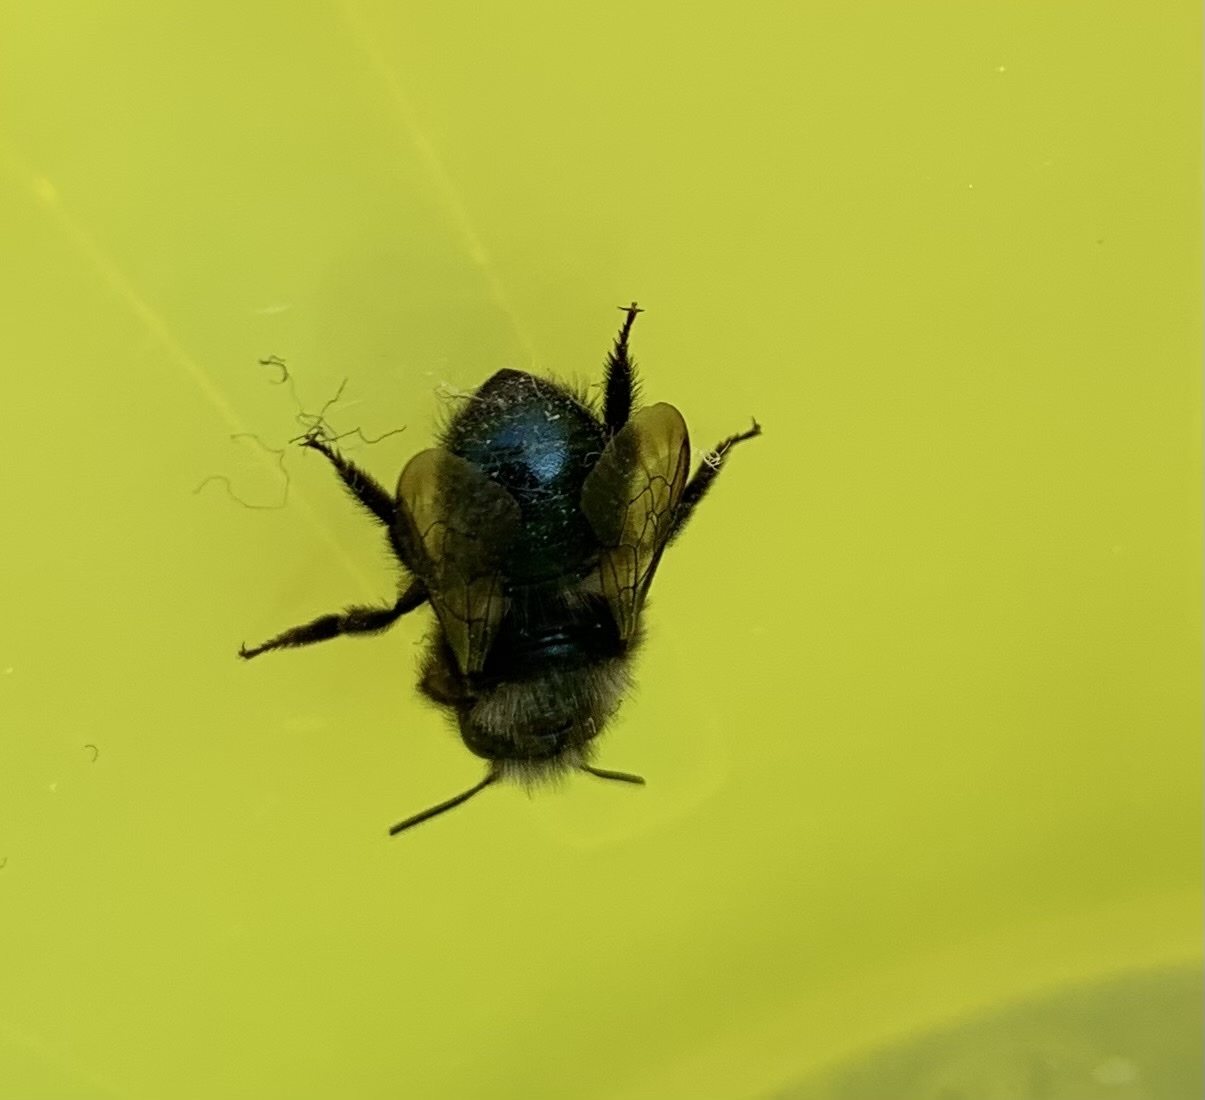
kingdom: Animalia
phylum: Arthropoda
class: Insecta
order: Hymenoptera
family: Megachilidae
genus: Osmia
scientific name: Osmia lignaria
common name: Blue orchard bee
